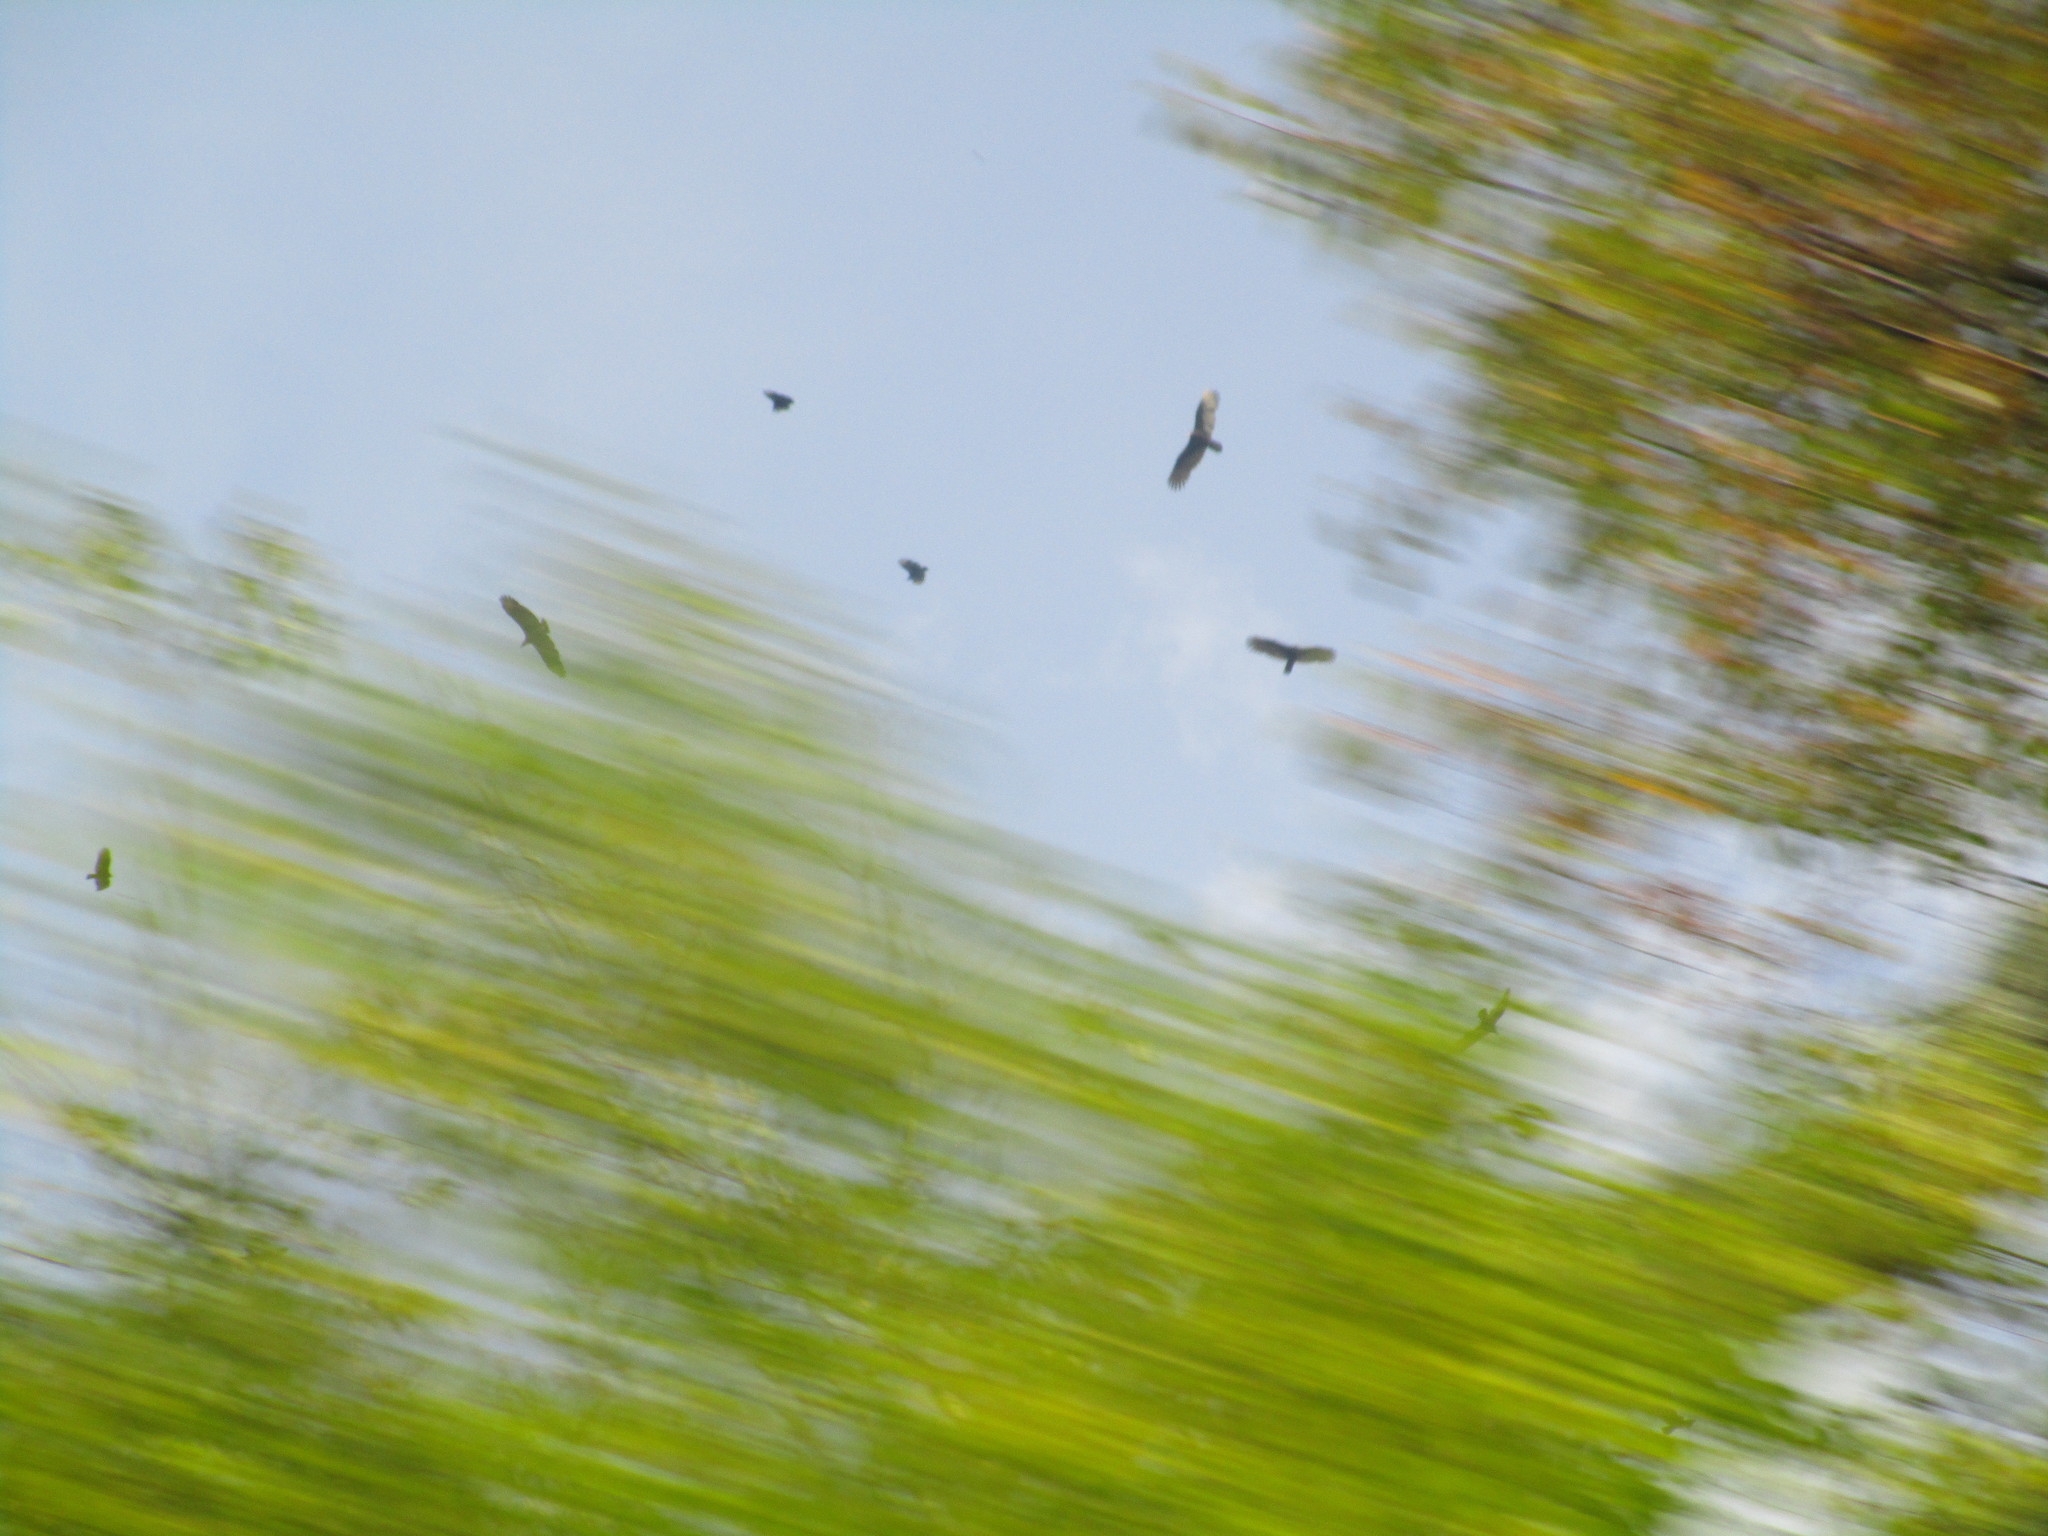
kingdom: Animalia
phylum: Chordata
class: Aves
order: Accipitriformes
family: Cathartidae
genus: Cathartes
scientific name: Cathartes aura
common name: Turkey vulture
